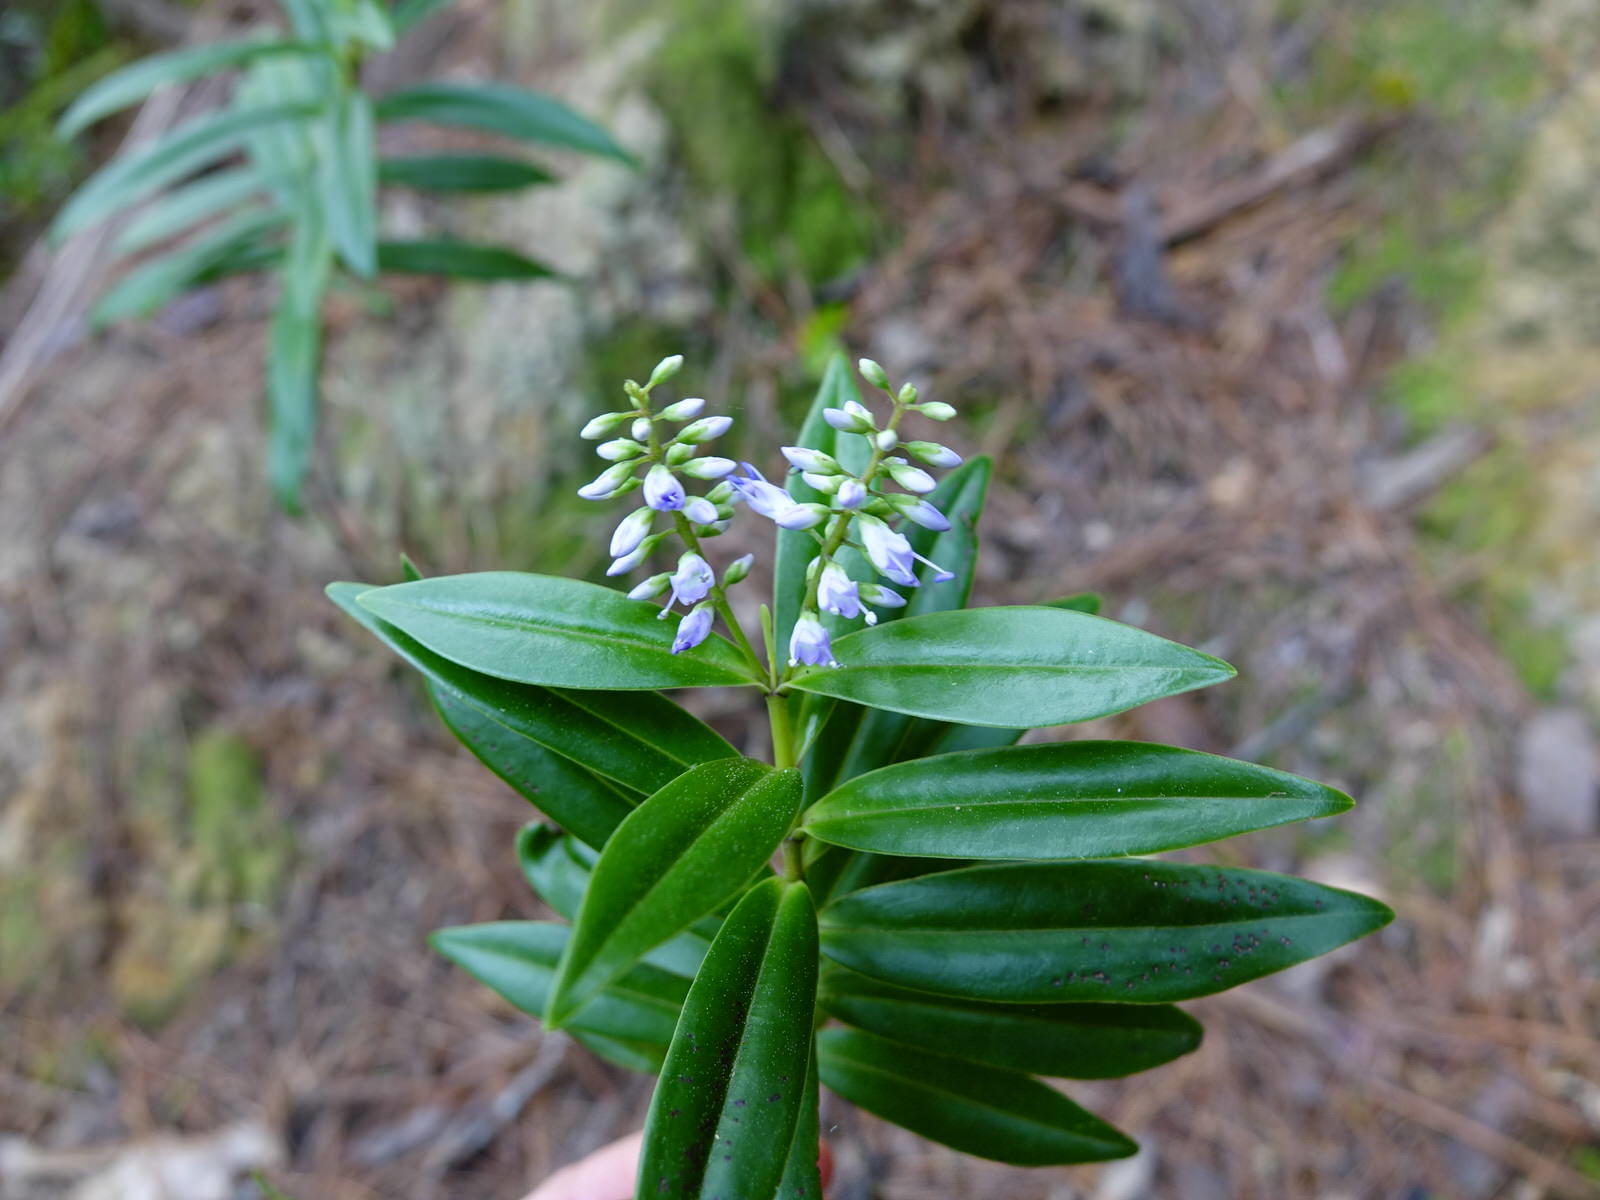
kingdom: Plantae
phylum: Tracheophyta
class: Magnoliopsida
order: Lamiales
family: Plantaginaceae
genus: Veronica
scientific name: Veronica macrocarpa
